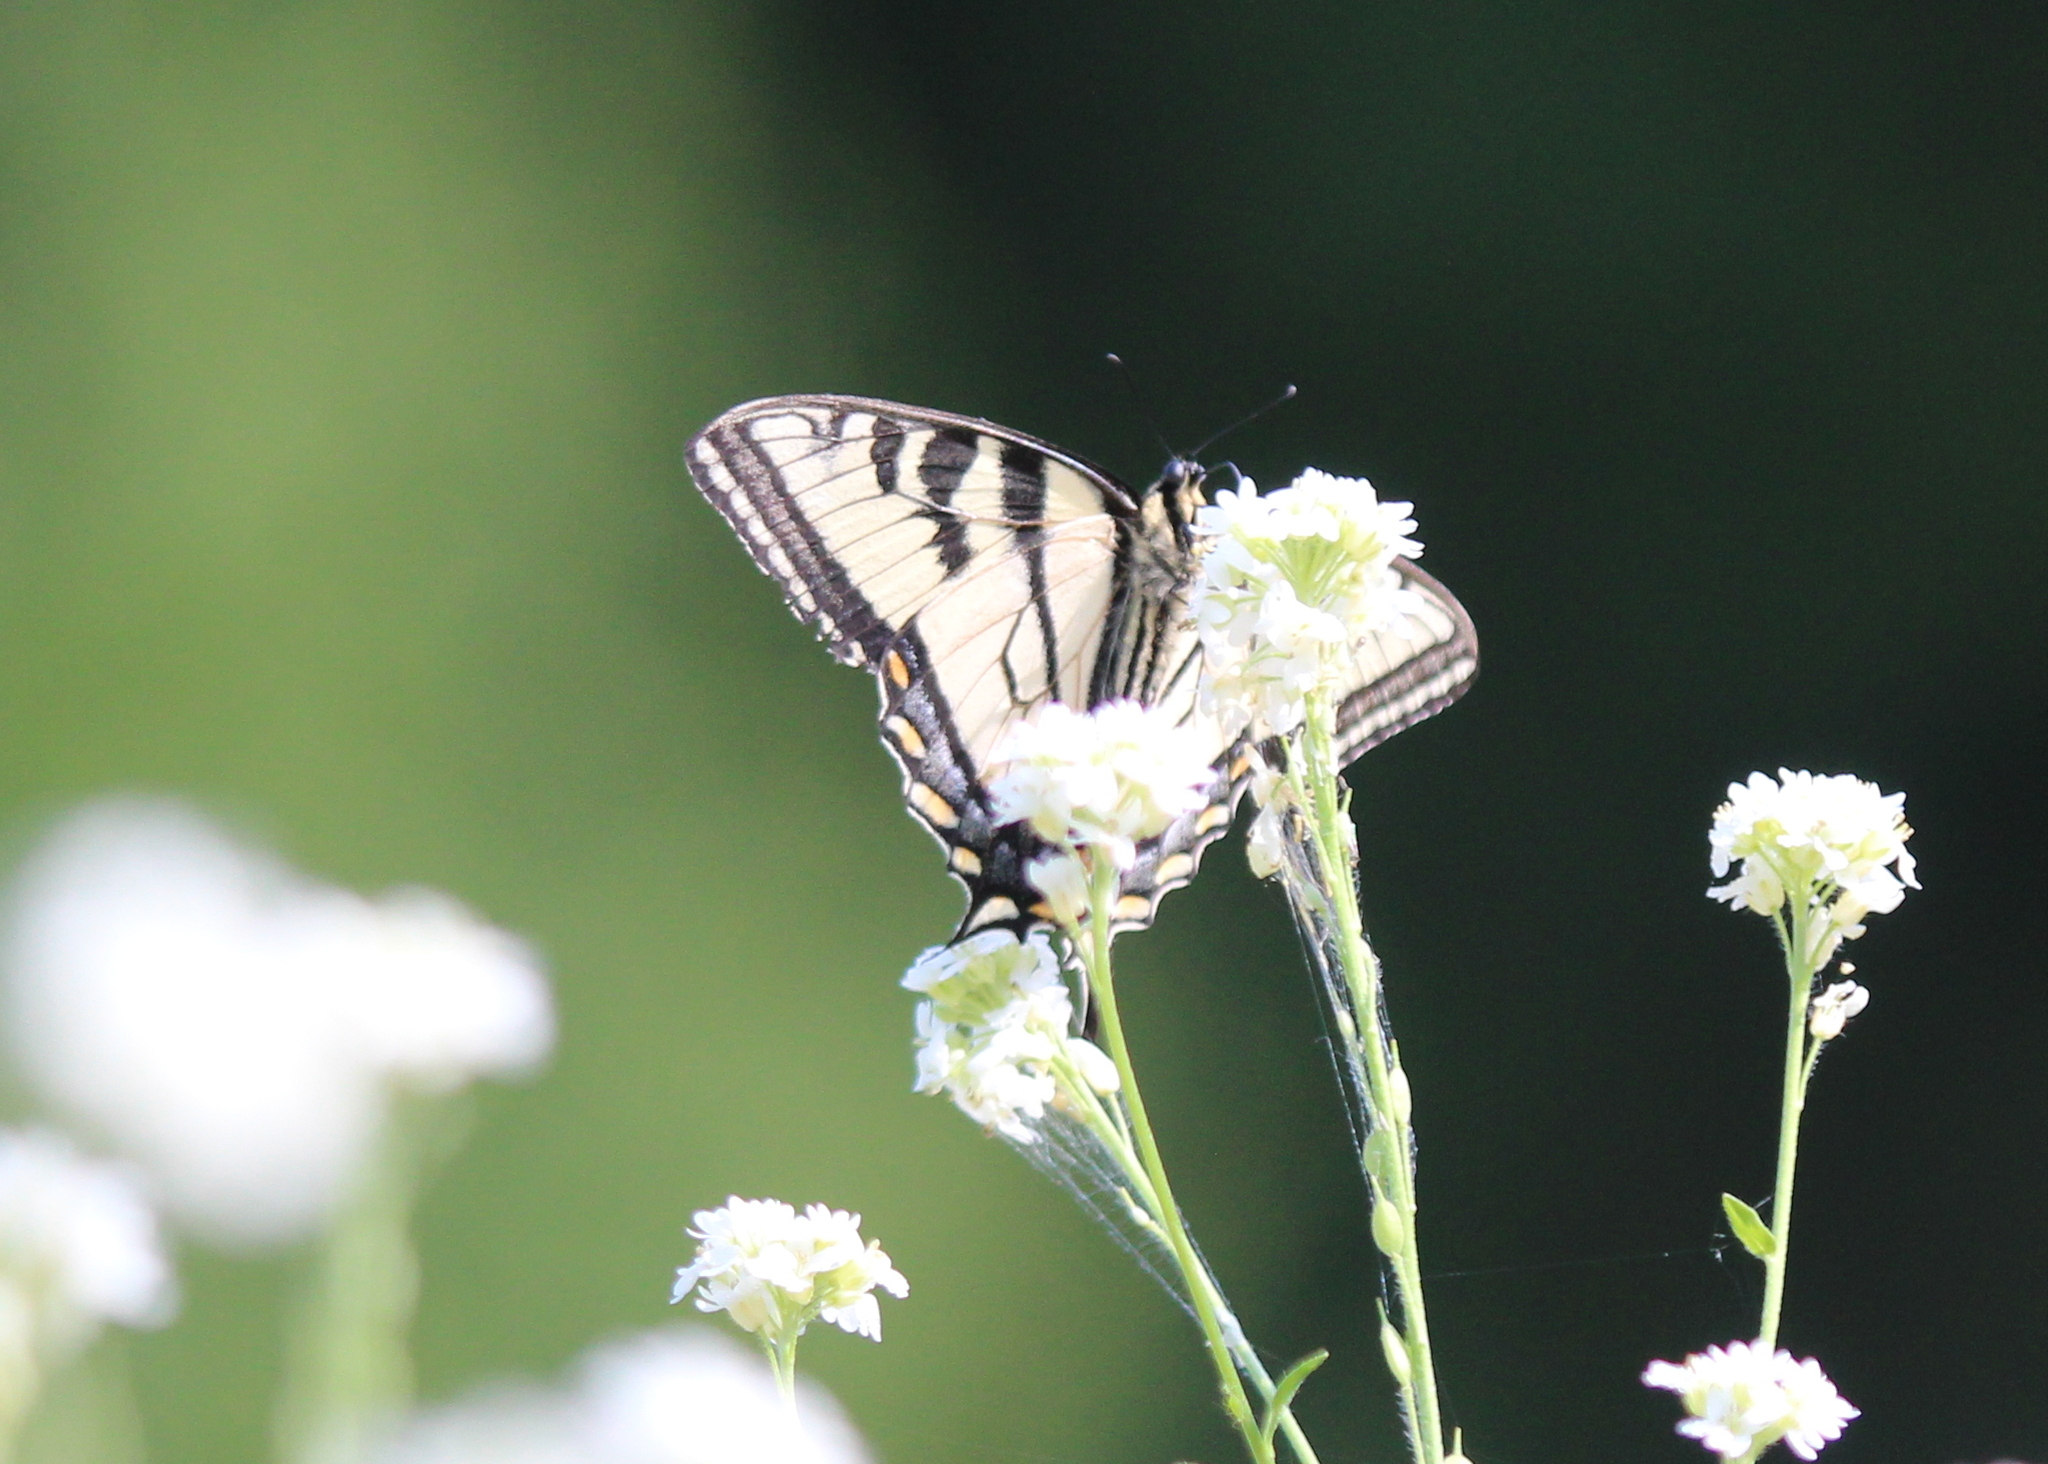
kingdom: Animalia
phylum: Arthropoda
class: Insecta
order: Lepidoptera
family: Papilionidae
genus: Papilio
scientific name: Papilio canadensis
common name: Canadian tiger swallowtail
